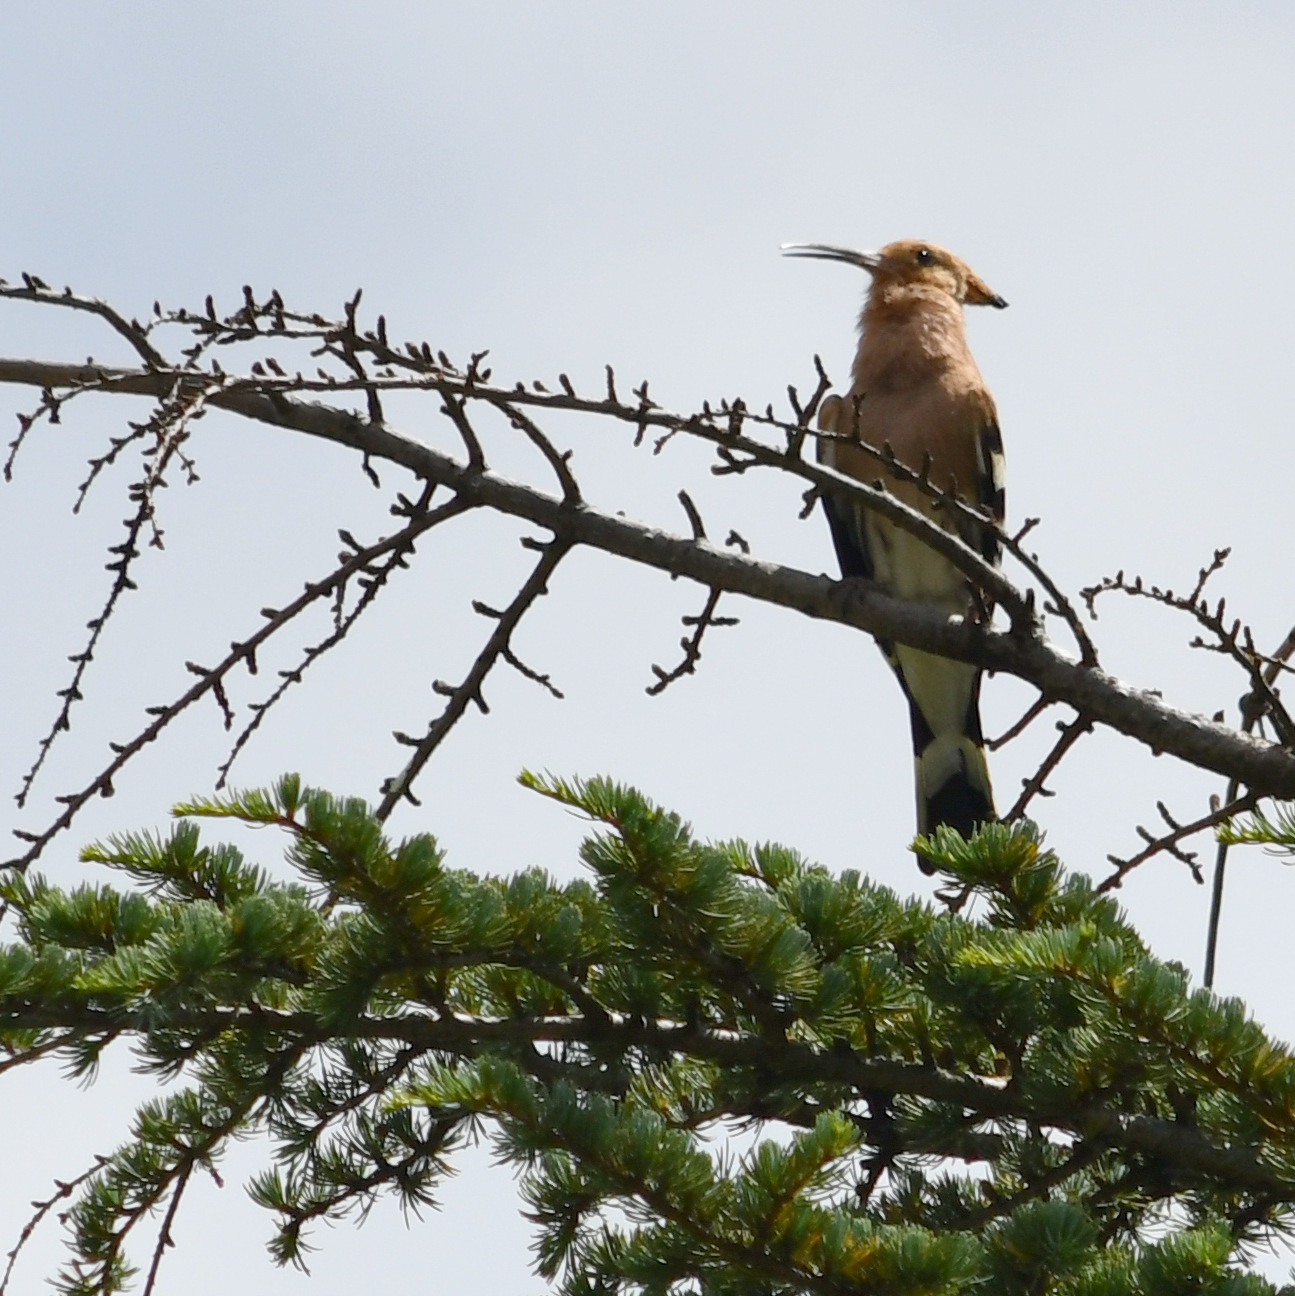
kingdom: Animalia
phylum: Chordata
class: Aves
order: Bucerotiformes
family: Upupidae
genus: Upupa
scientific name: Upupa epops
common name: Eurasian hoopoe
